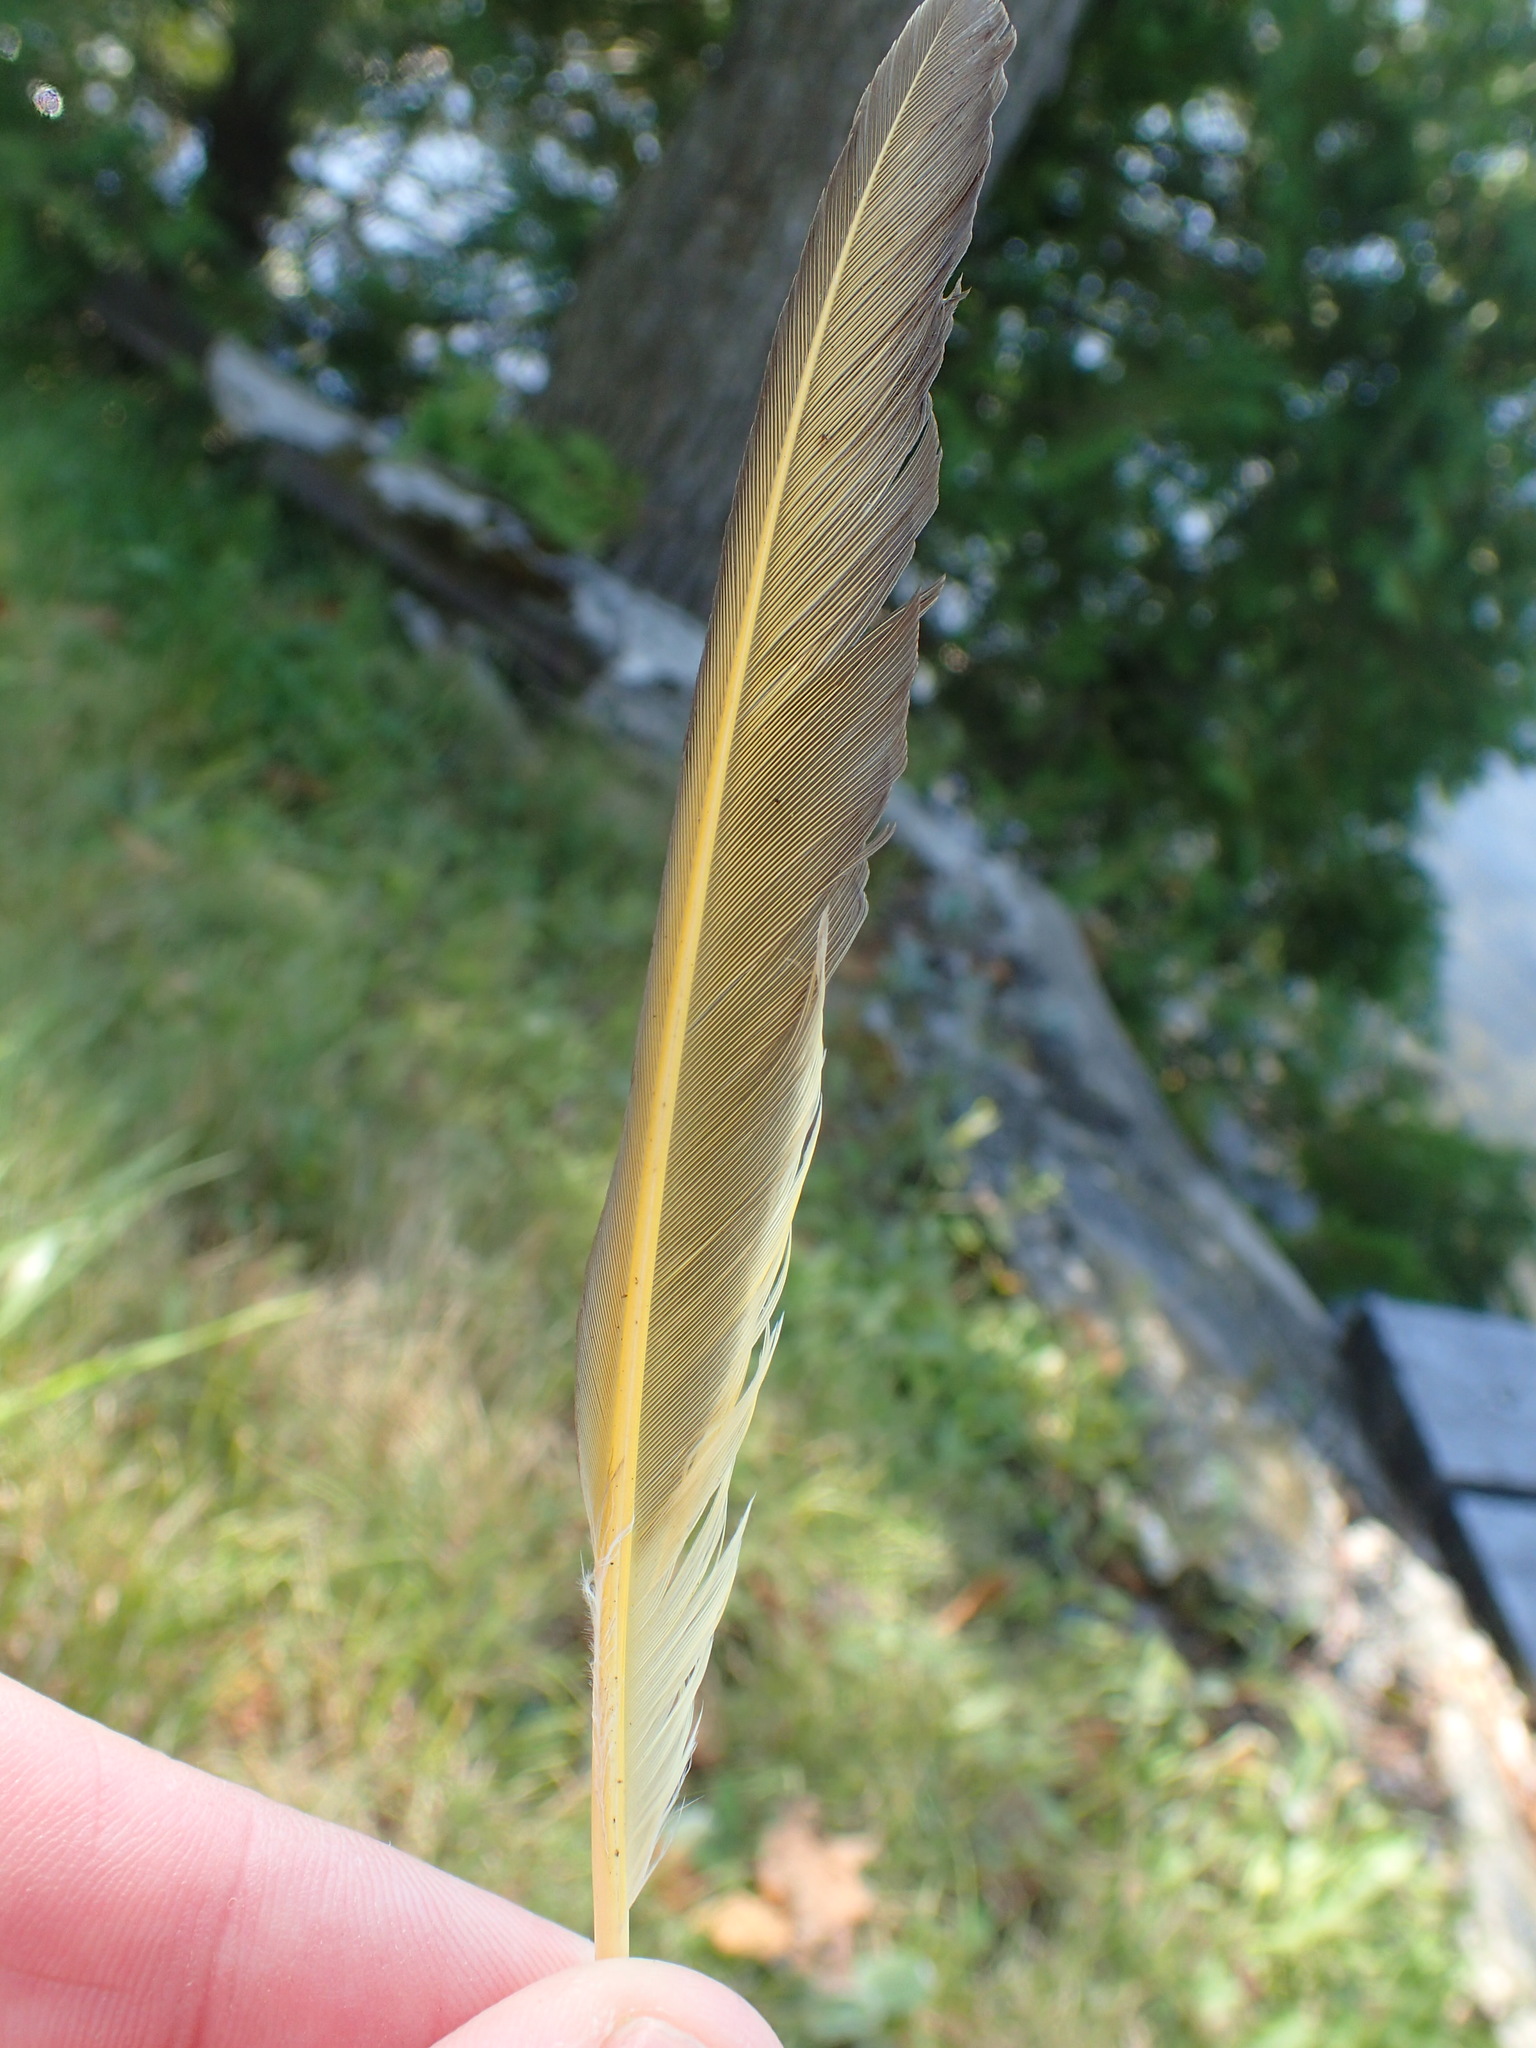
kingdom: Animalia
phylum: Chordata
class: Aves
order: Piciformes
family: Picidae
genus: Colaptes
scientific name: Colaptes auratus
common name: Northern flicker
